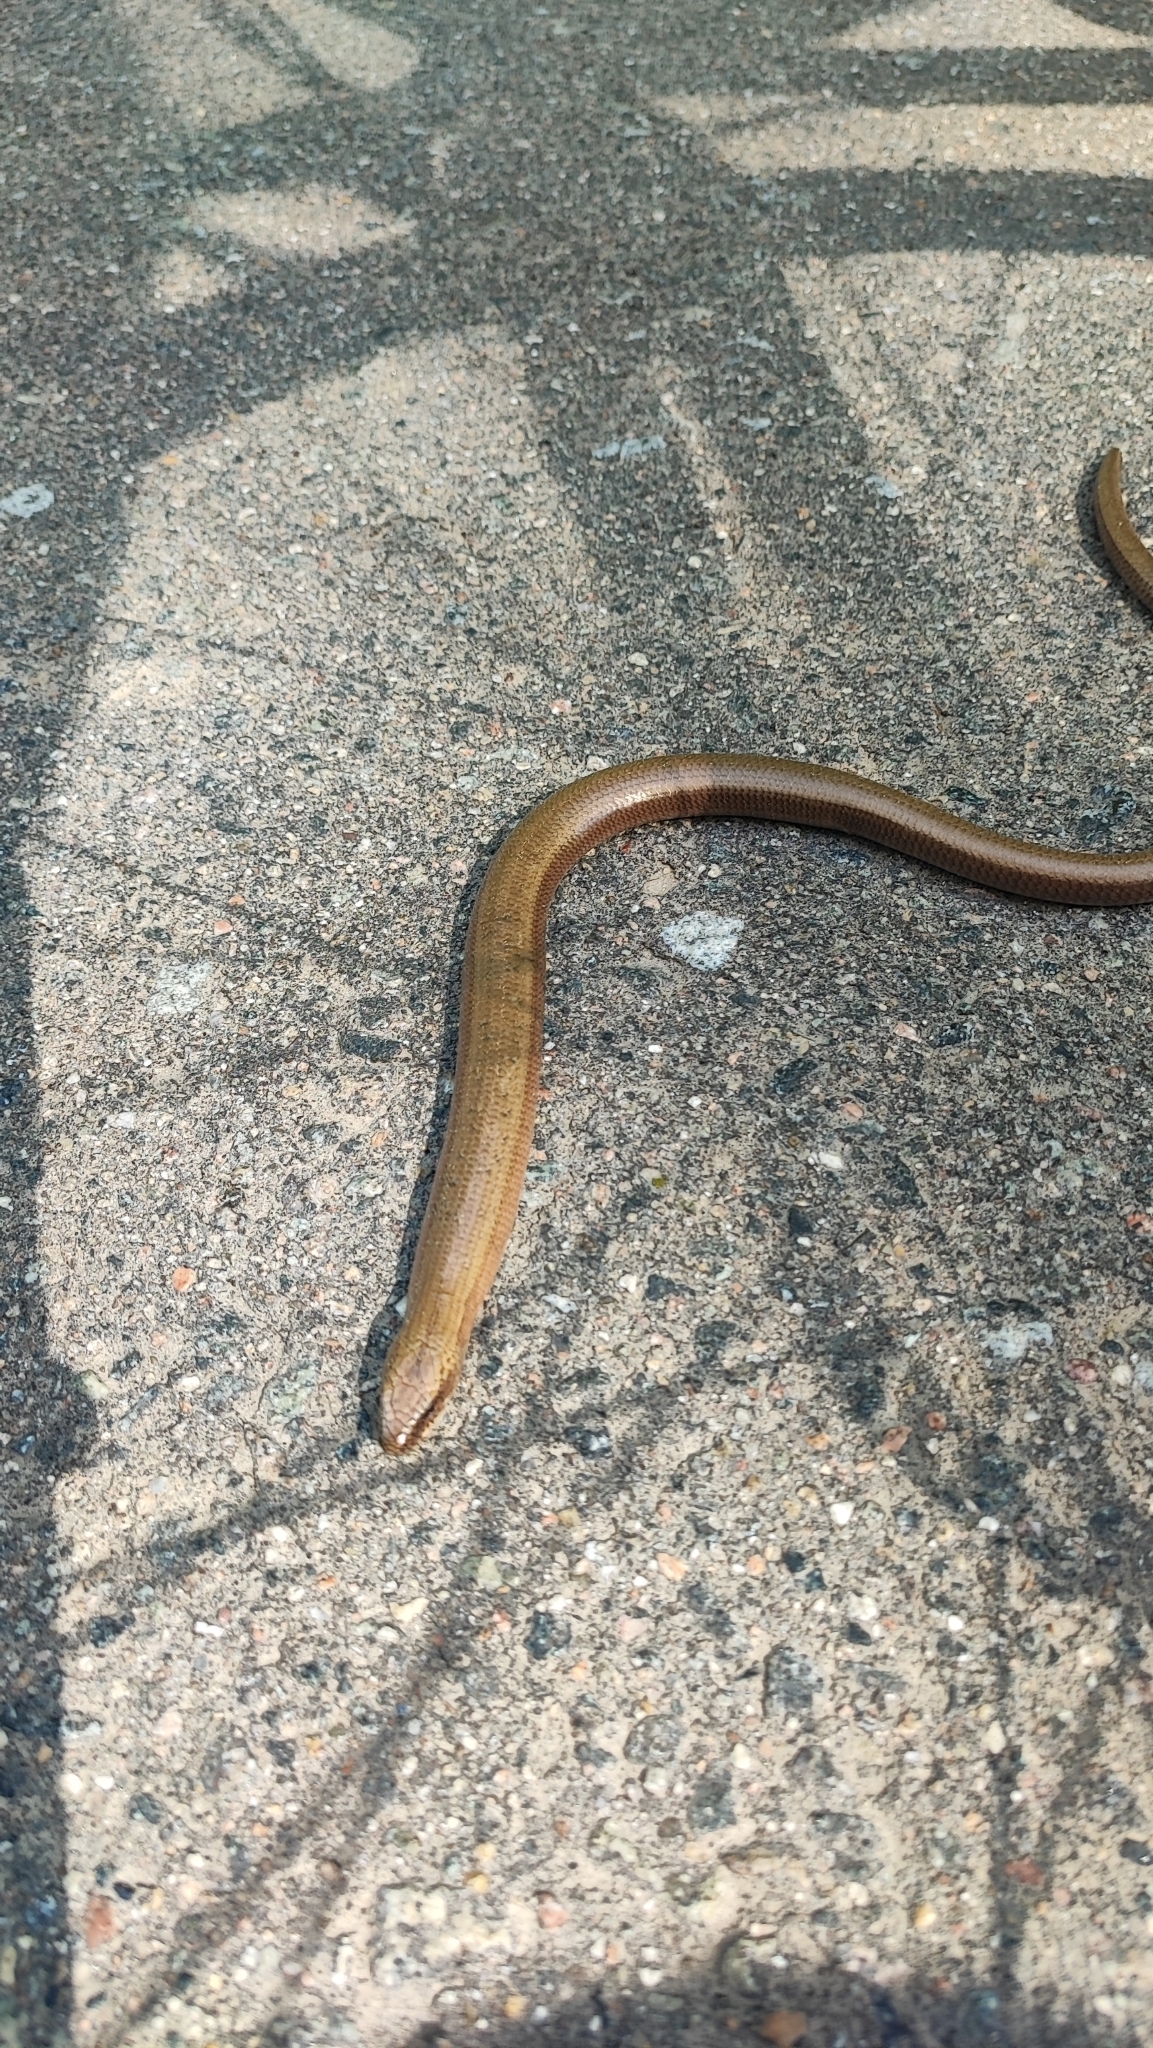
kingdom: Animalia
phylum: Chordata
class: Squamata
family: Anguidae
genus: Anguis
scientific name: Anguis colchica
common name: Slow worm
